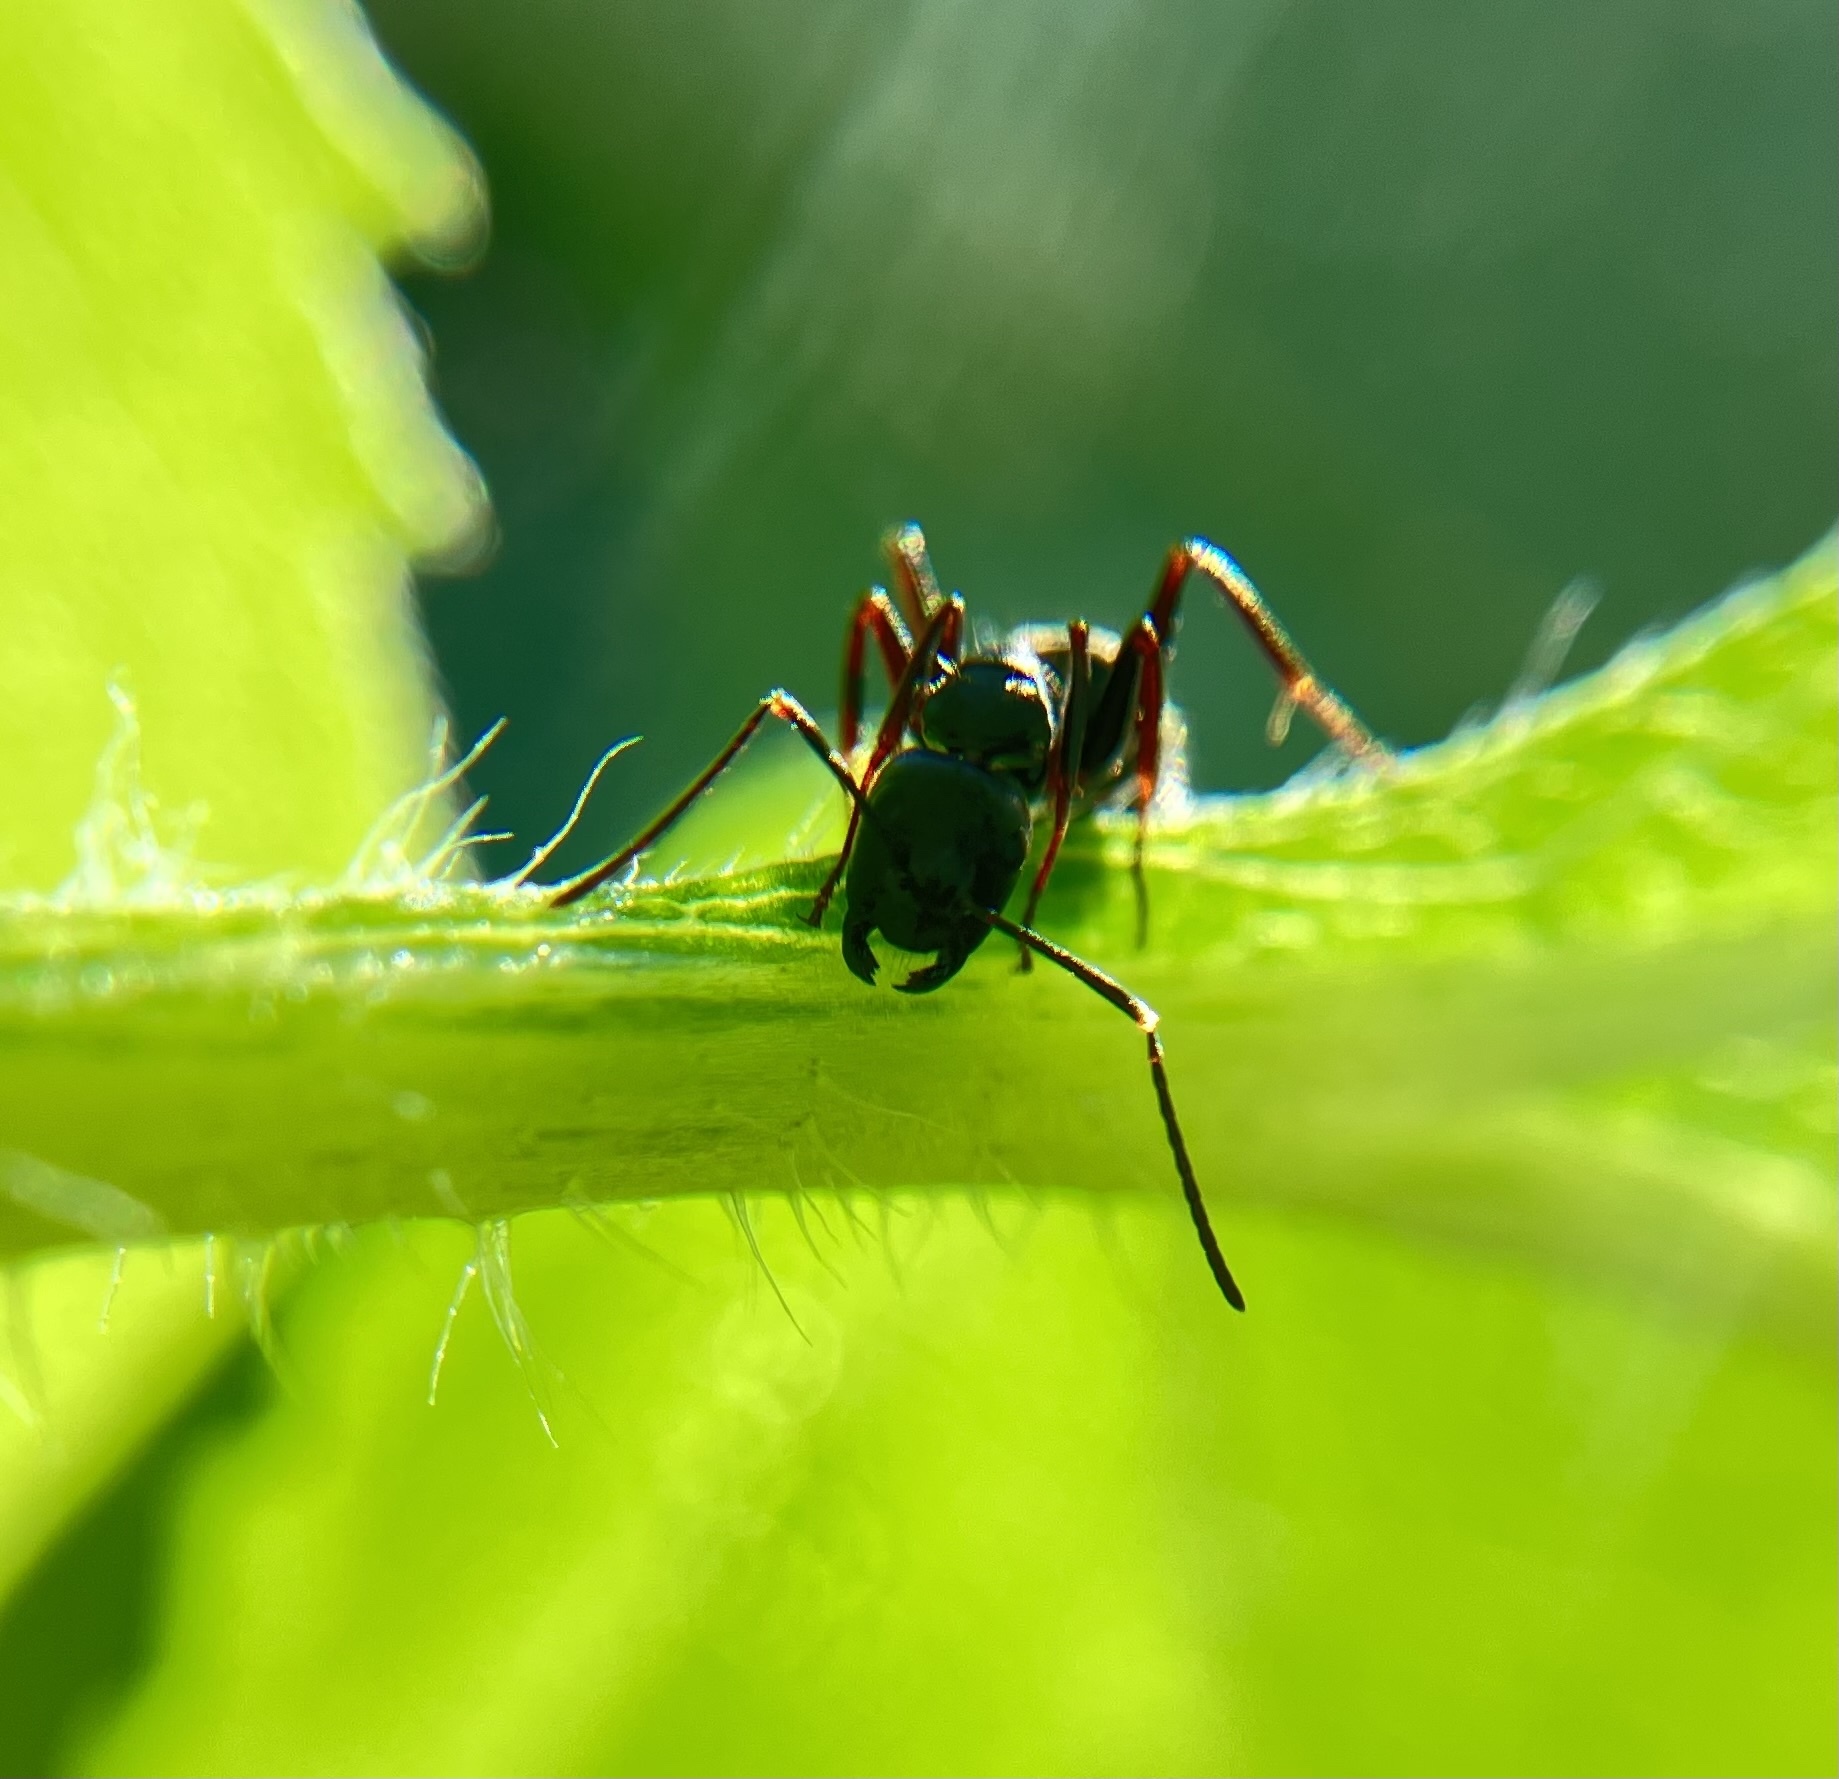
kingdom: Animalia
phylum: Arthropoda
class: Insecta
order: Hymenoptera
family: Formicidae
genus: Camponotus
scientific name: Camponotus pennsylvanicus
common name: Black carpenter ant
